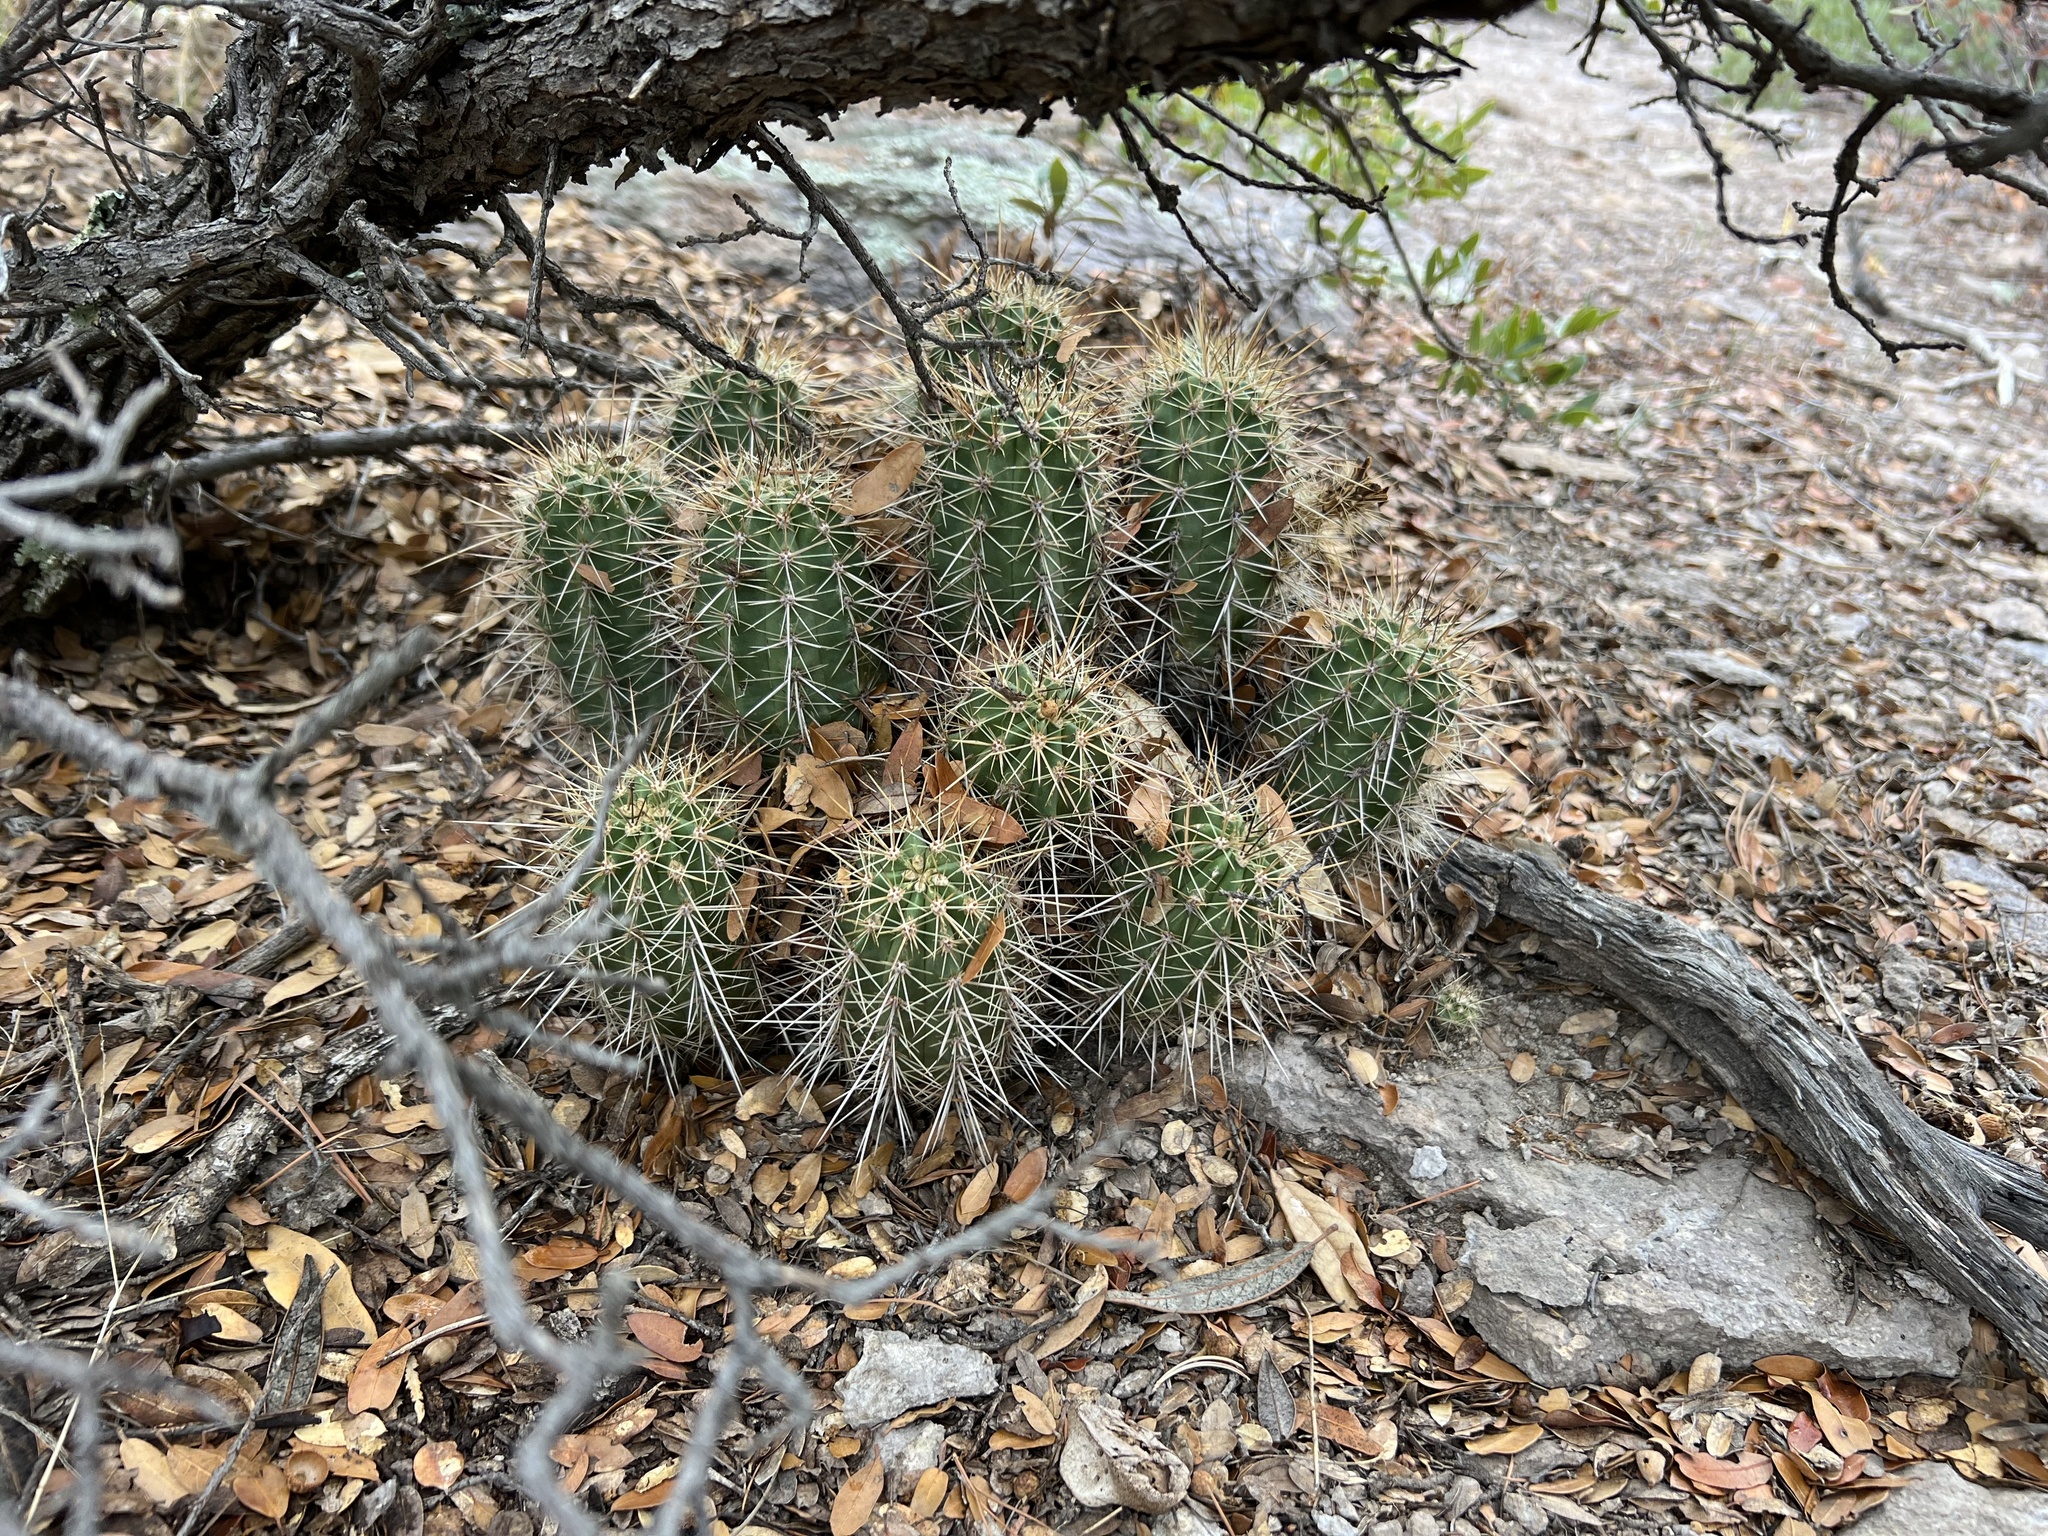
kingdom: Plantae
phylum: Tracheophyta
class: Magnoliopsida
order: Caryophyllales
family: Cactaceae
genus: Echinocereus
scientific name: Echinocereus coccineus
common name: Scarlet hedgehog cactus
